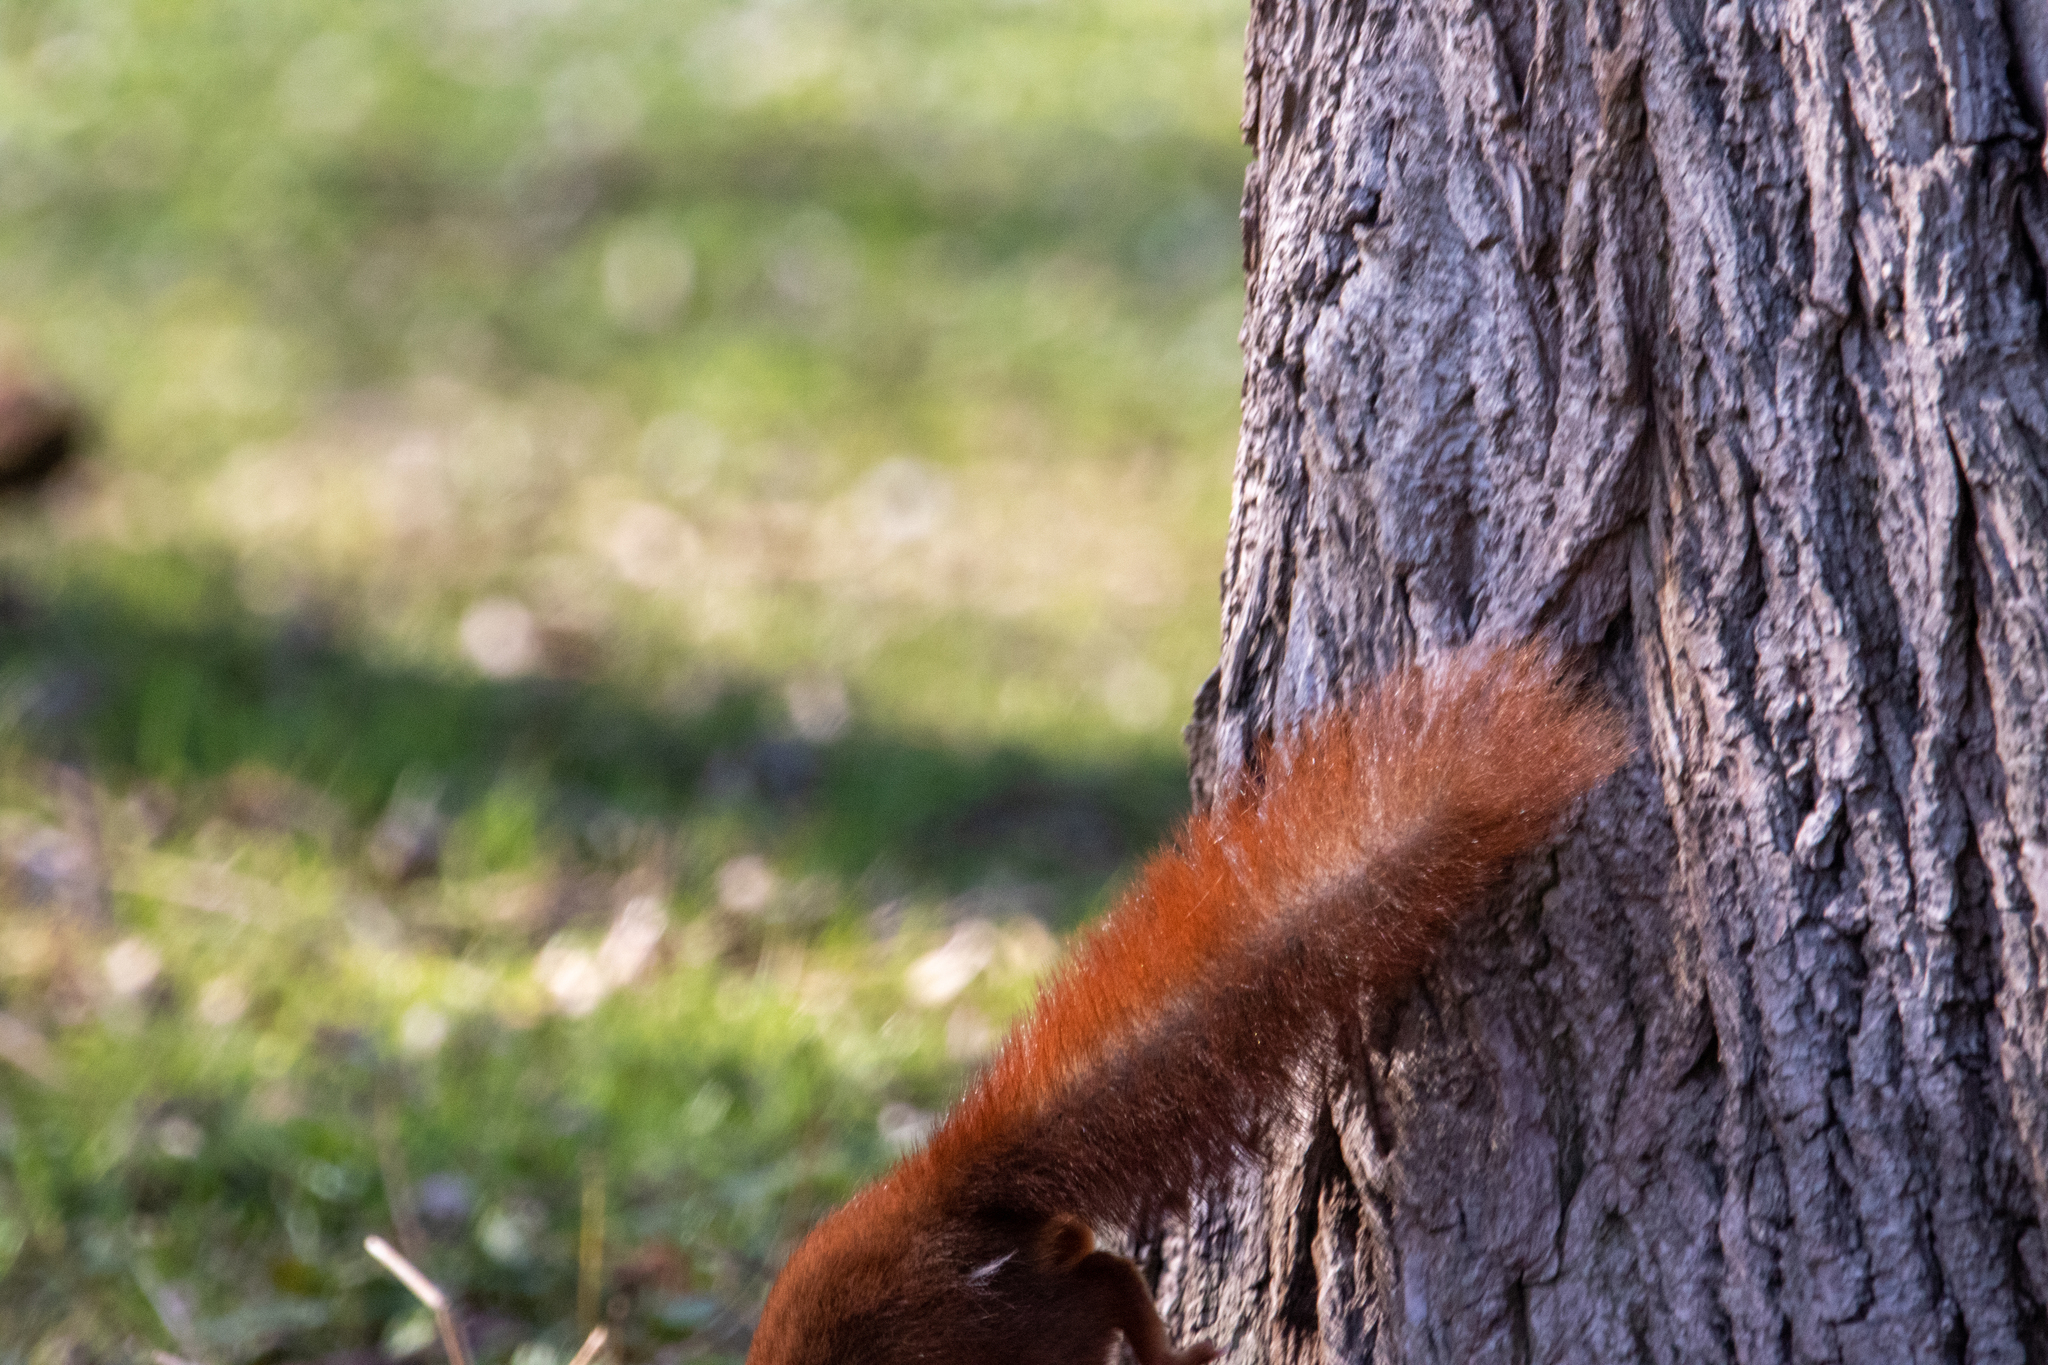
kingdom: Animalia
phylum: Chordata
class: Mammalia
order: Rodentia
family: Sciuridae
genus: Sciurus
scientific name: Sciurus vulgaris
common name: Eurasian red squirrel
